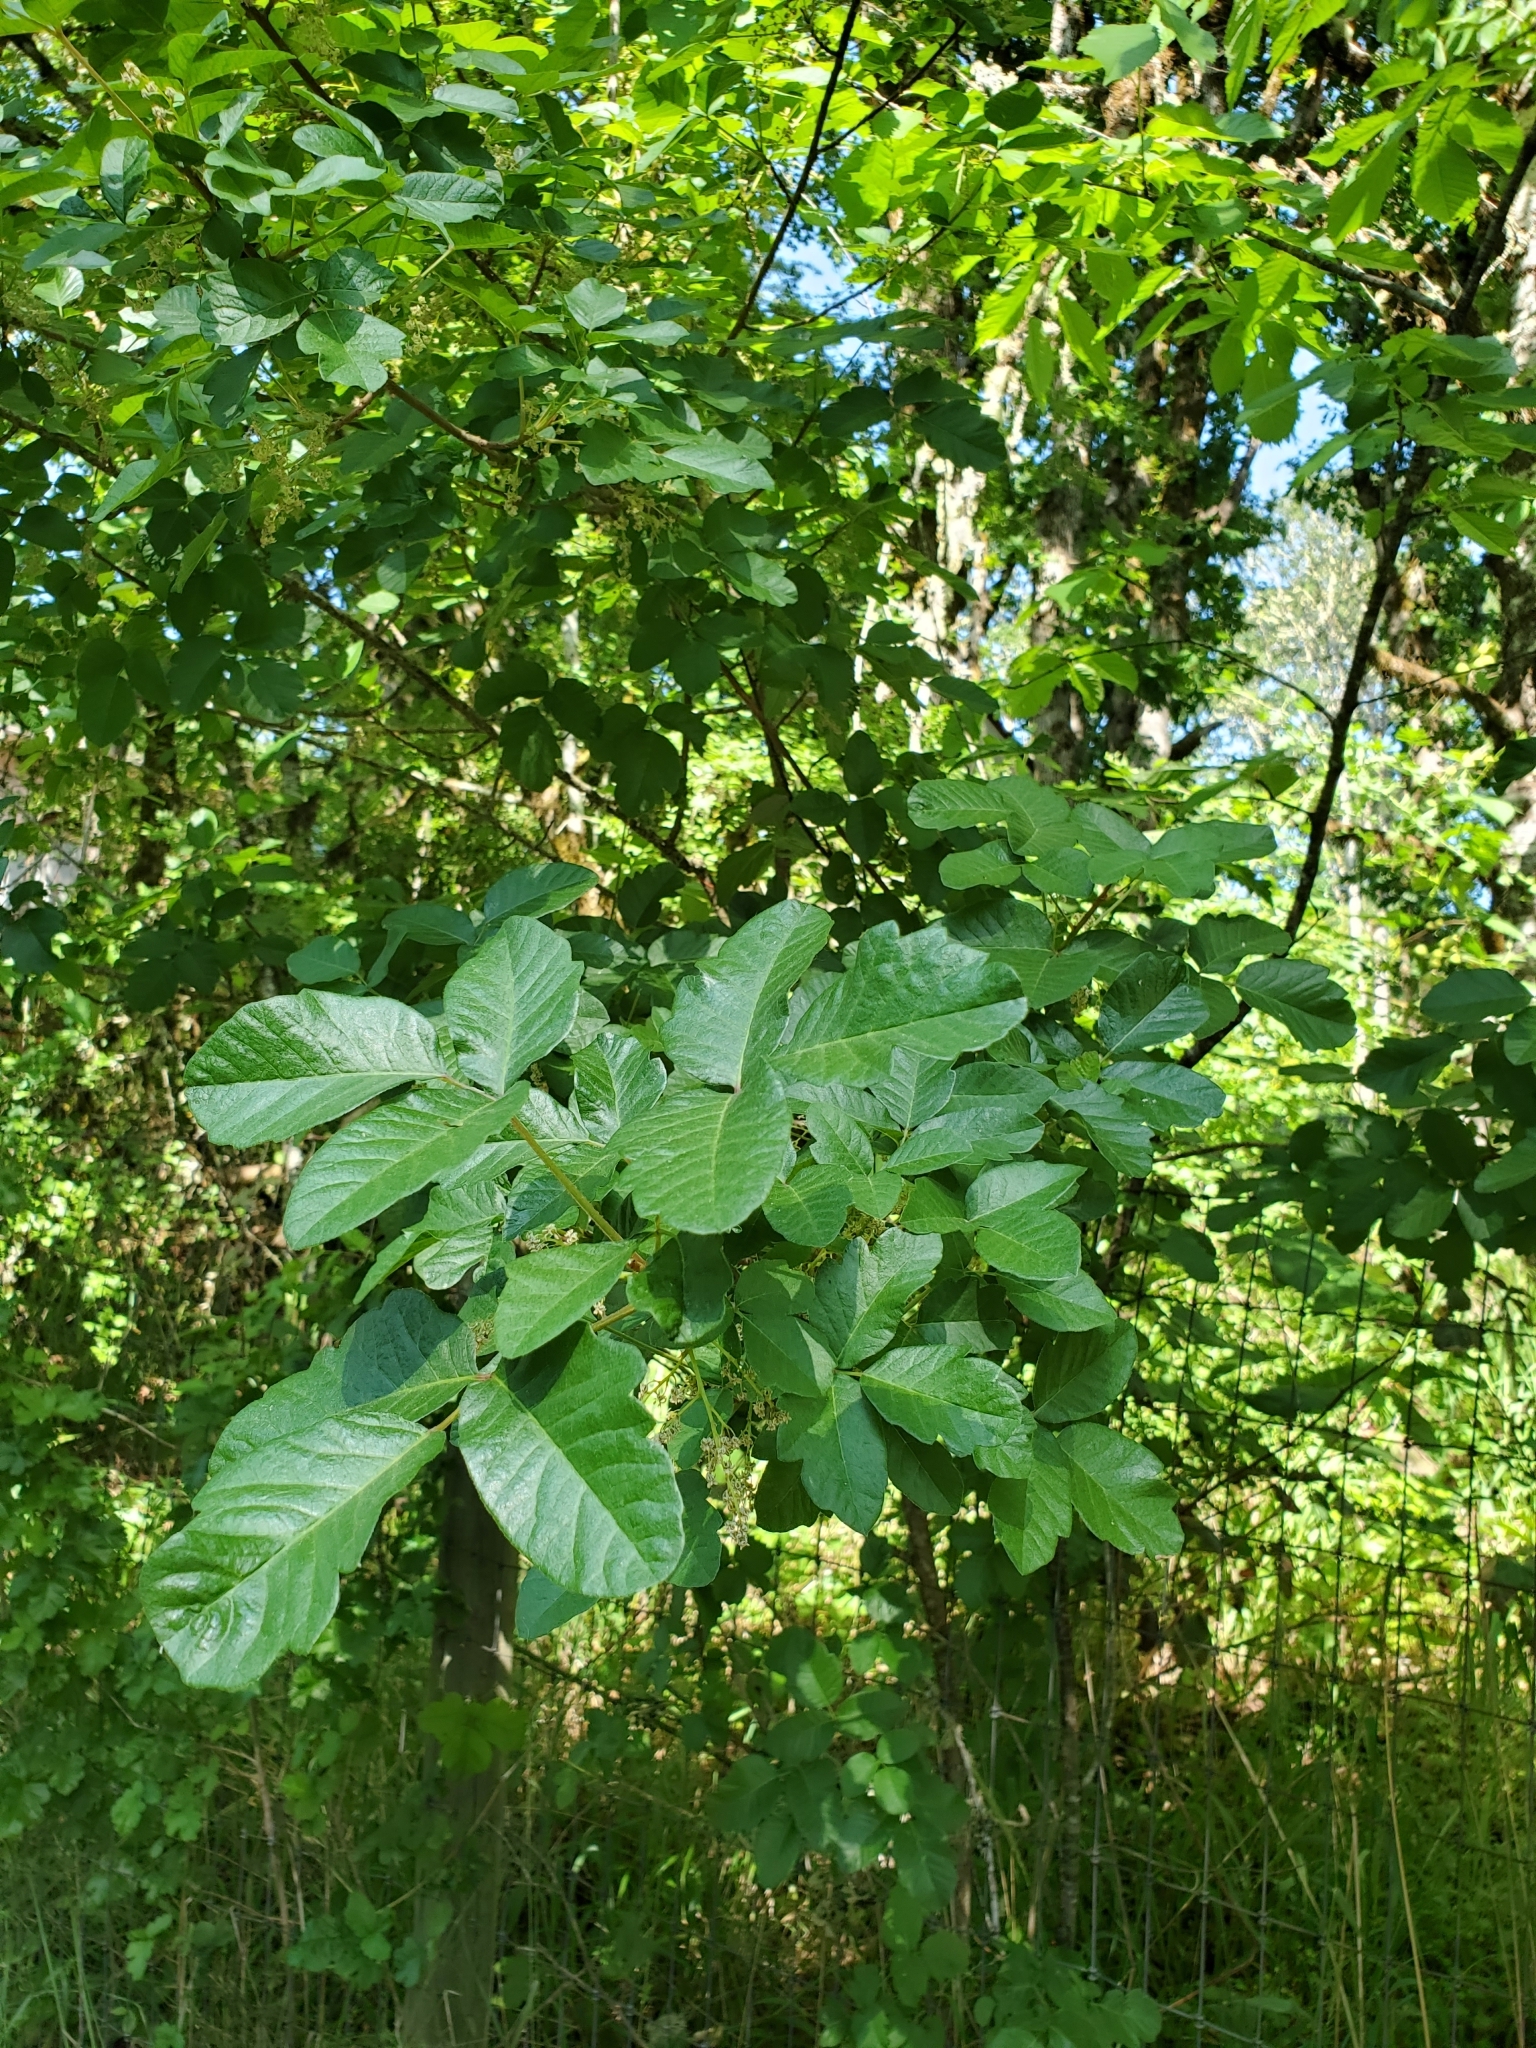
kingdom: Plantae
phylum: Tracheophyta
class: Magnoliopsida
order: Sapindales
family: Anacardiaceae
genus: Toxicodendron
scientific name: Toxicodendron diversilobum
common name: Pacific poison-oak
